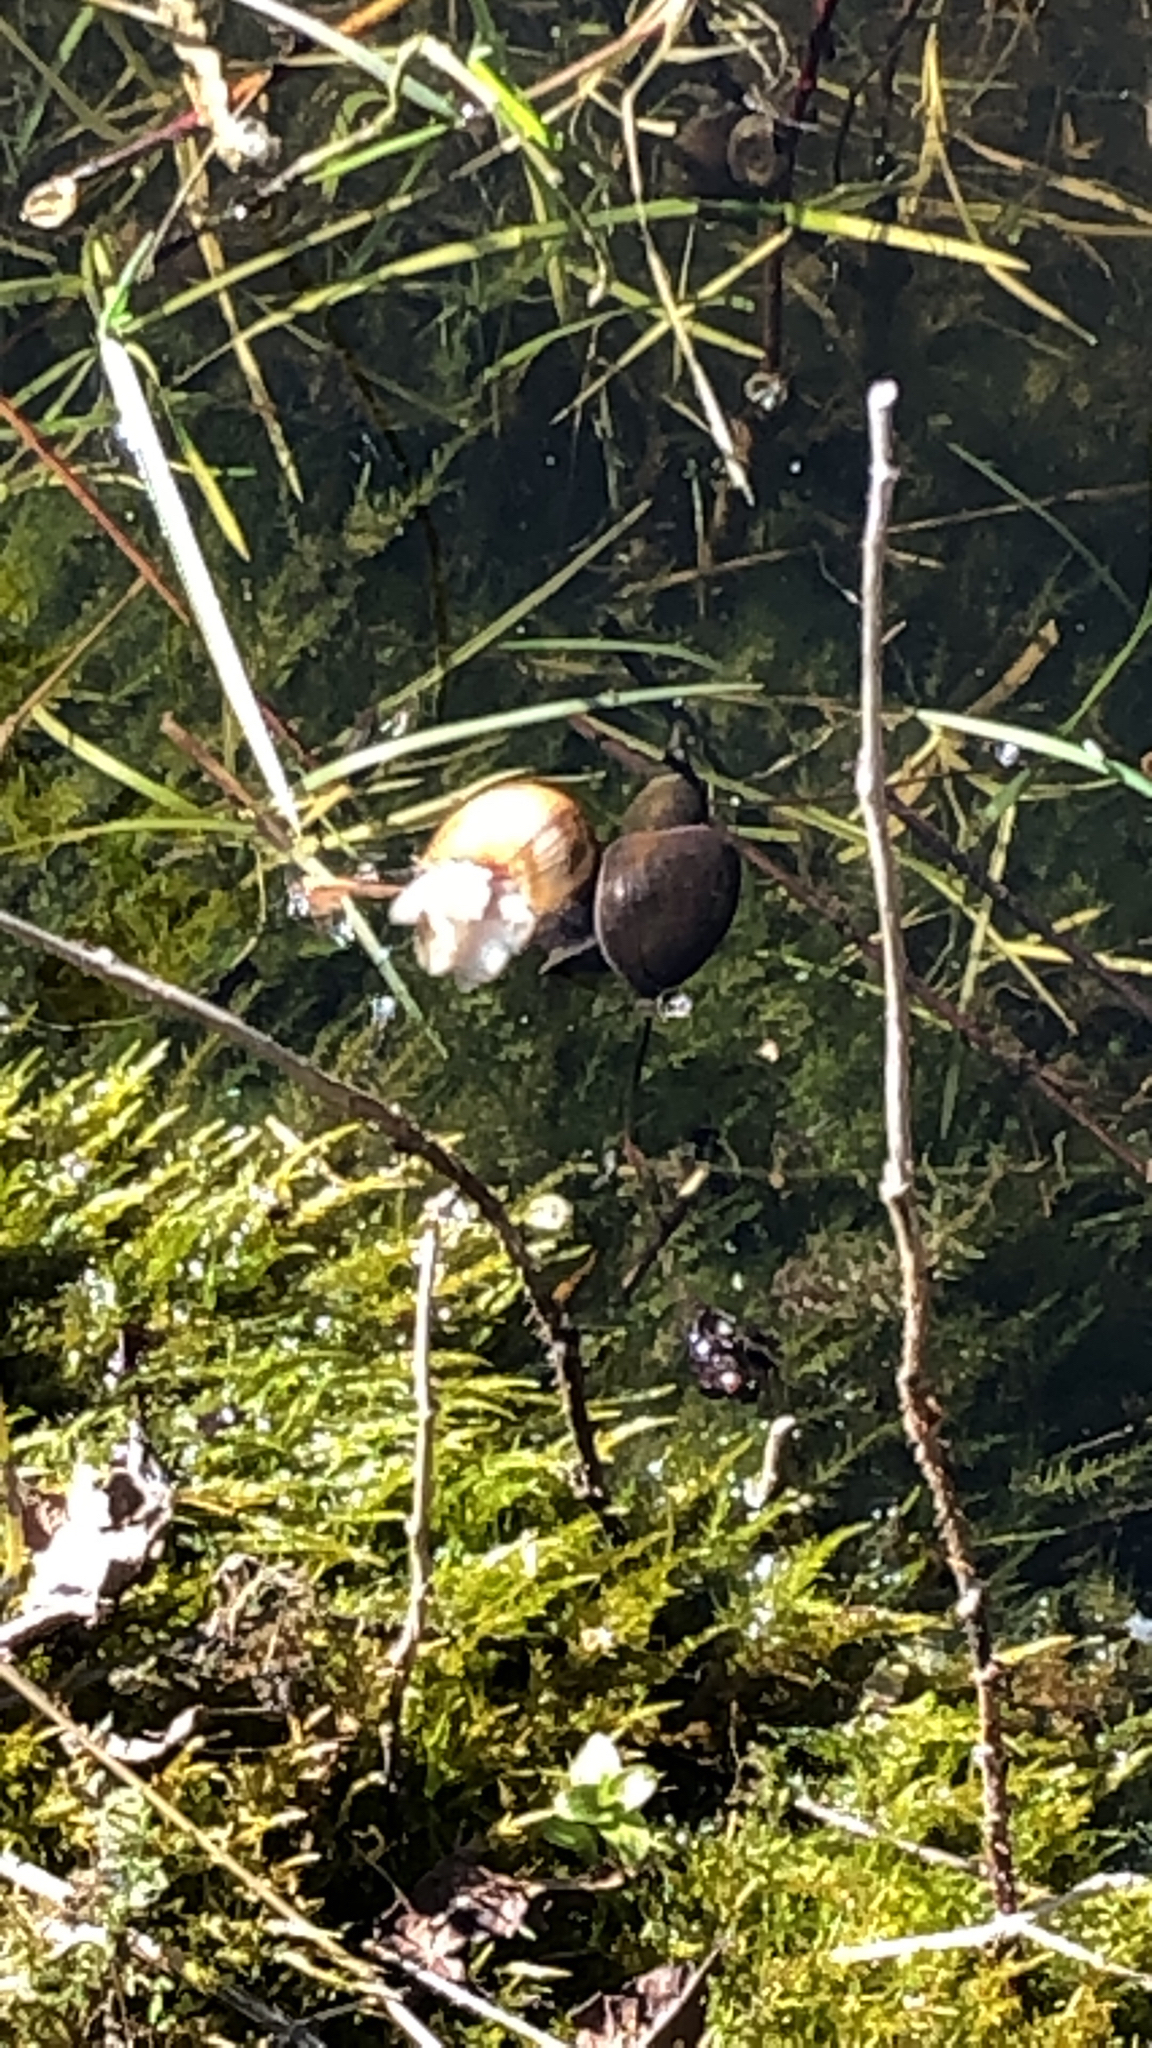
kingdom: Animalia
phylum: Mollusca
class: Gastropoda
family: Lymnaeidae
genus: Lymnaea
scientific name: Lymnaea stagnalis
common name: Great pond snail
